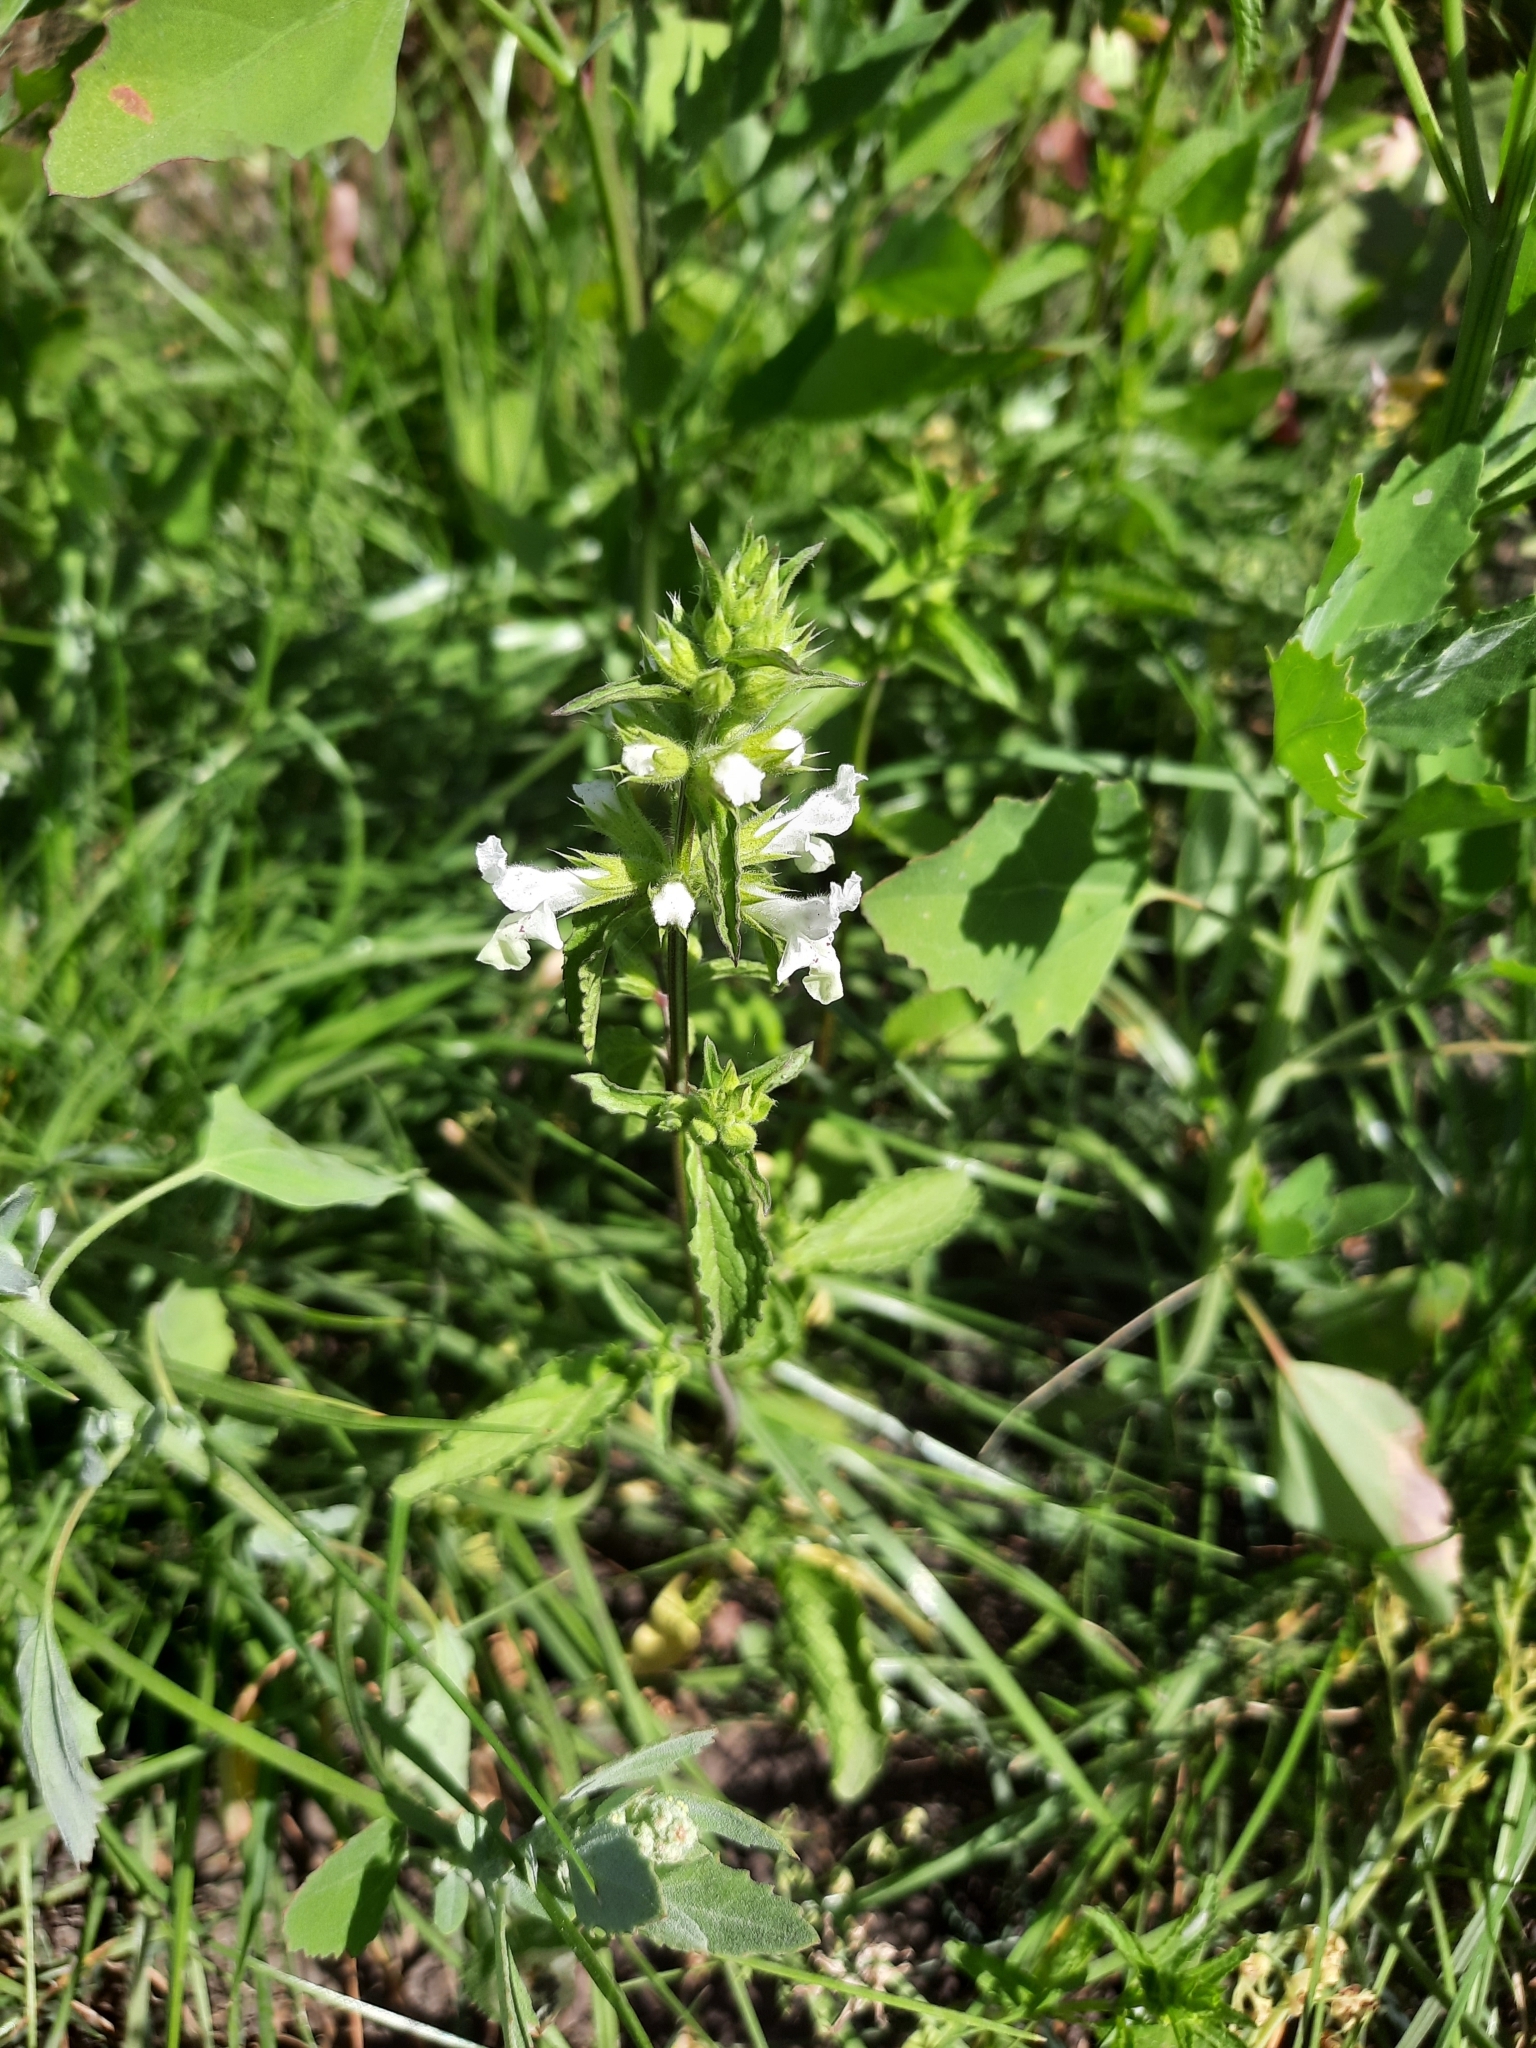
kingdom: Plantae
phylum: Tracheophyta
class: Magnoliopsida
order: Lamiales
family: Lamiaceae
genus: Stachys
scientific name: Stachys annua
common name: Annual yellow-woundwort
